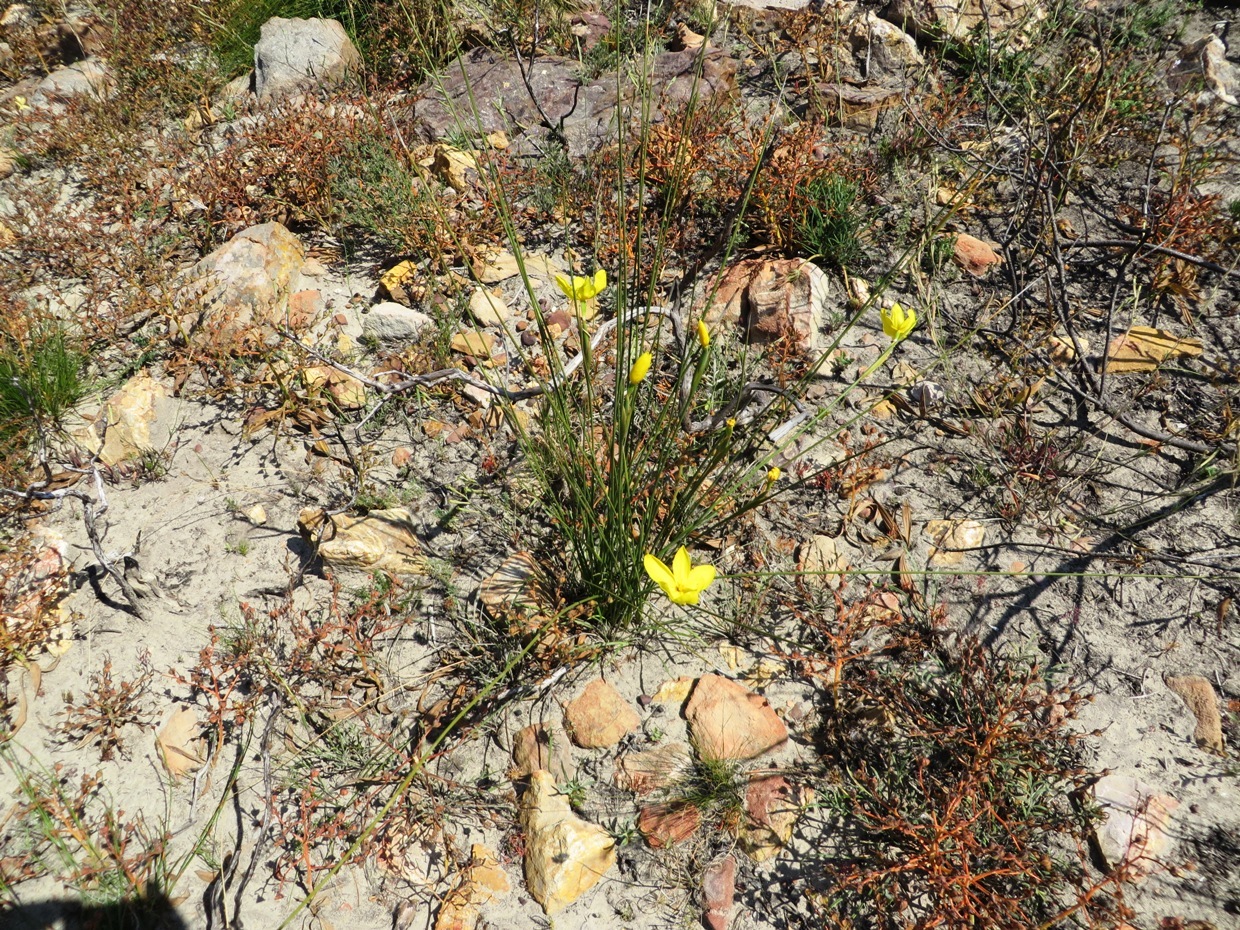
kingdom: Plantae
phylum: Tracheophyta
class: Liliopsida
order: Asparagales
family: Iridaceae
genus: Bobartia
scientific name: Bobartia filiformis
